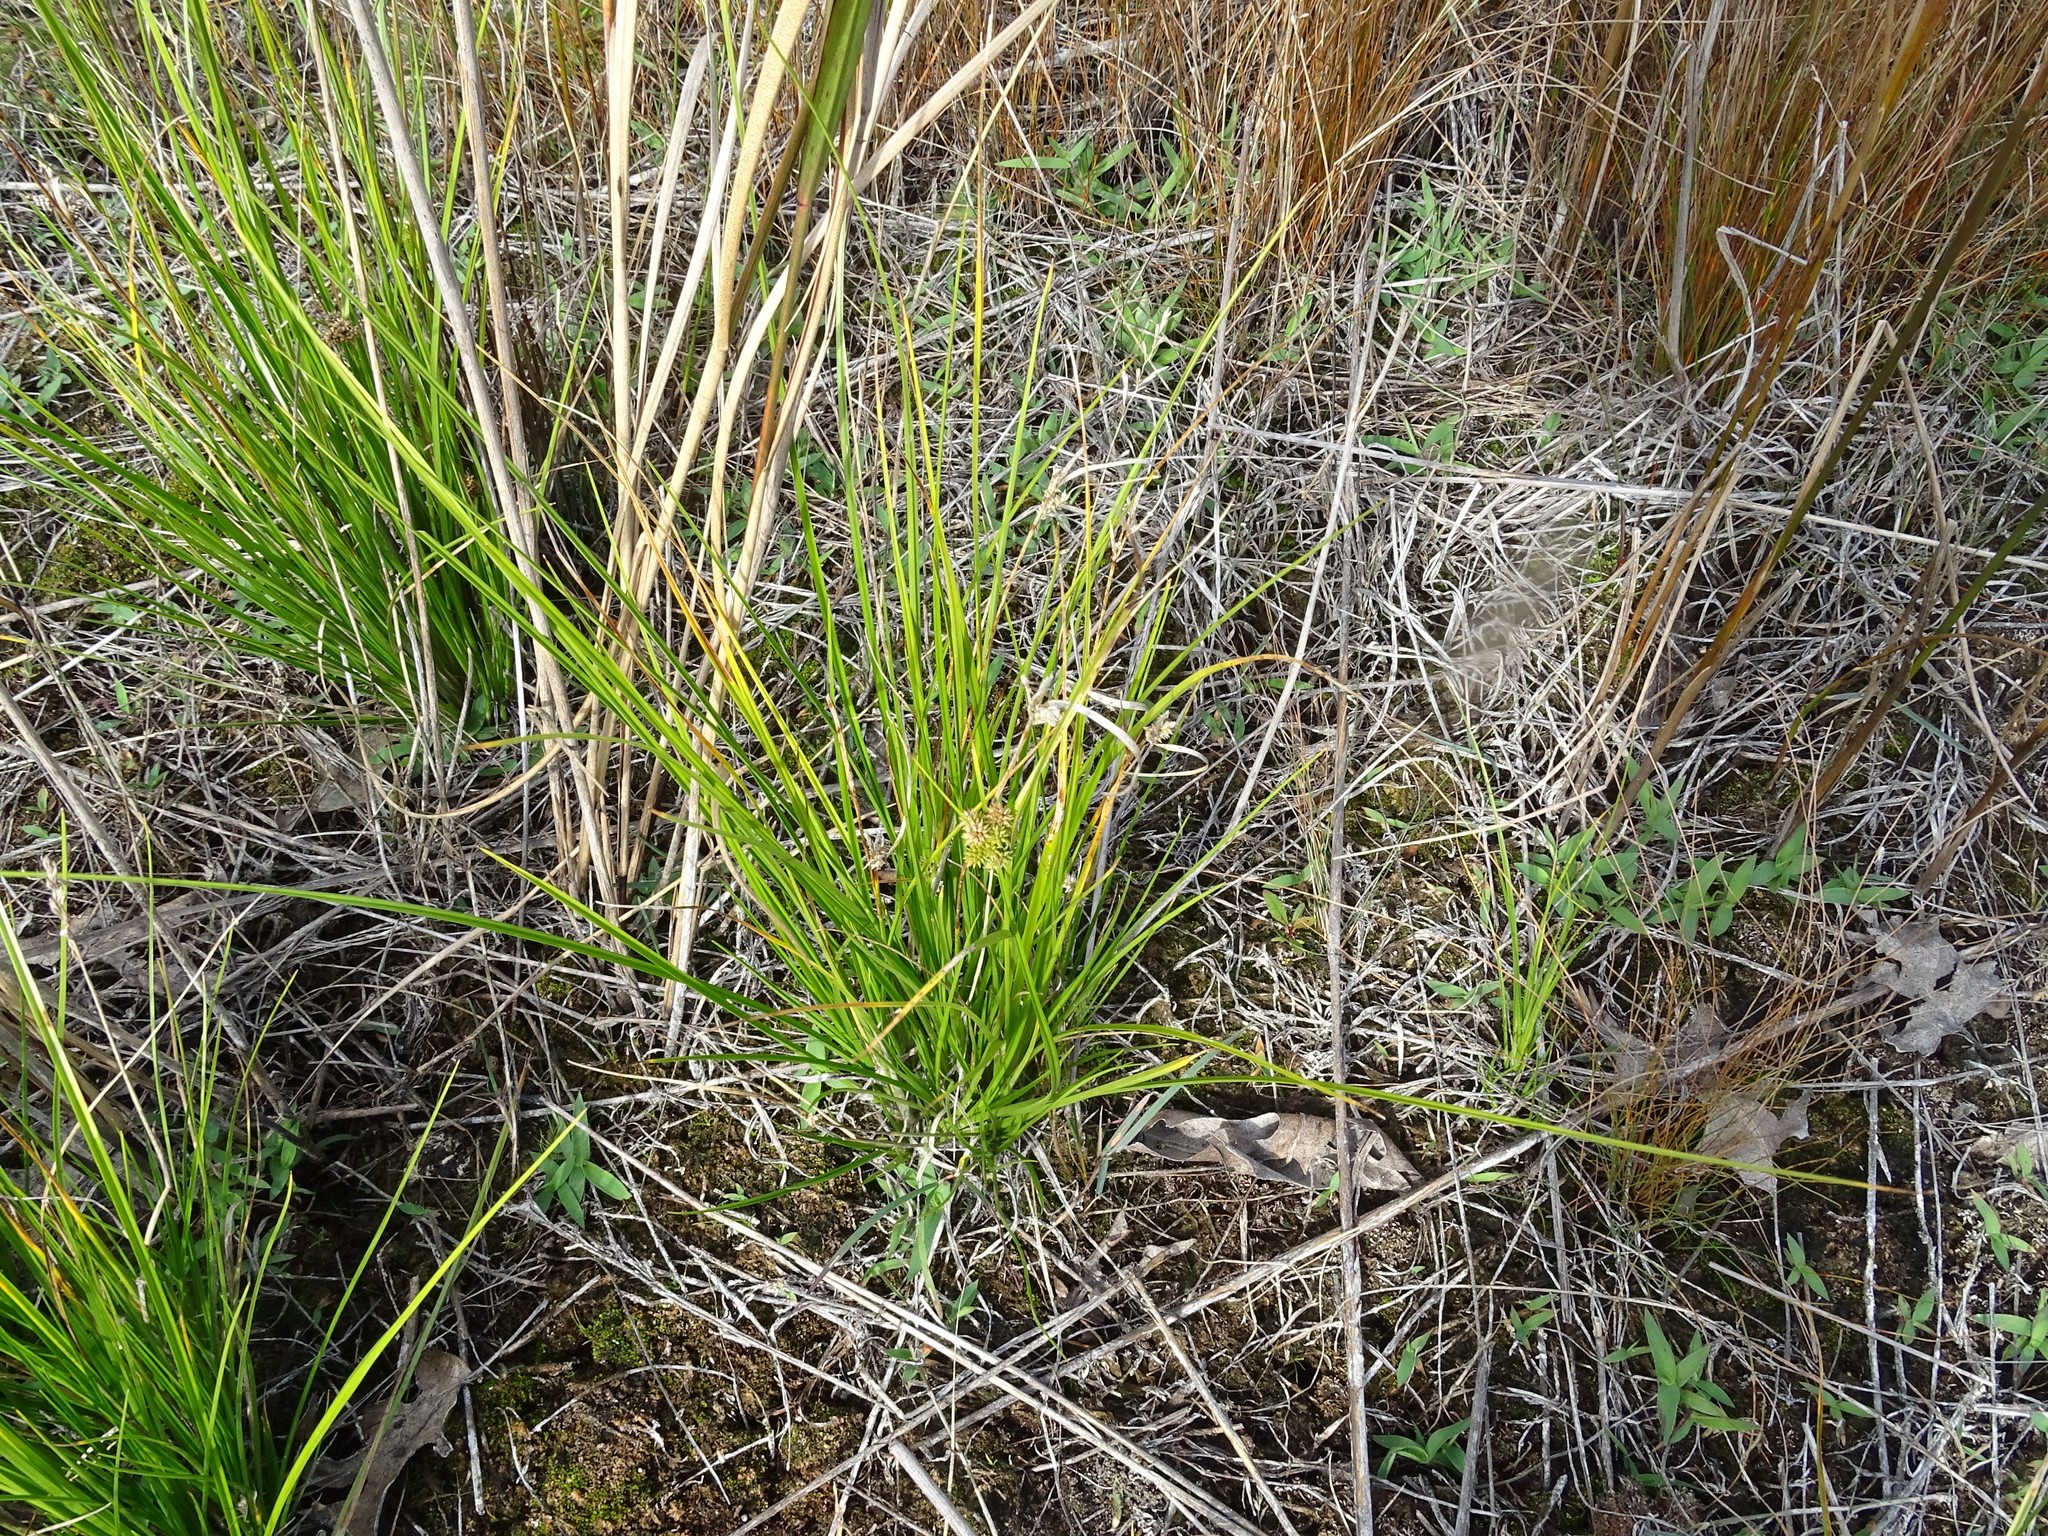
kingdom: Plantae
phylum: Tracheophyta
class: Liliopsida
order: Poales
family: Cyperaceae
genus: Carex
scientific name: Carex
